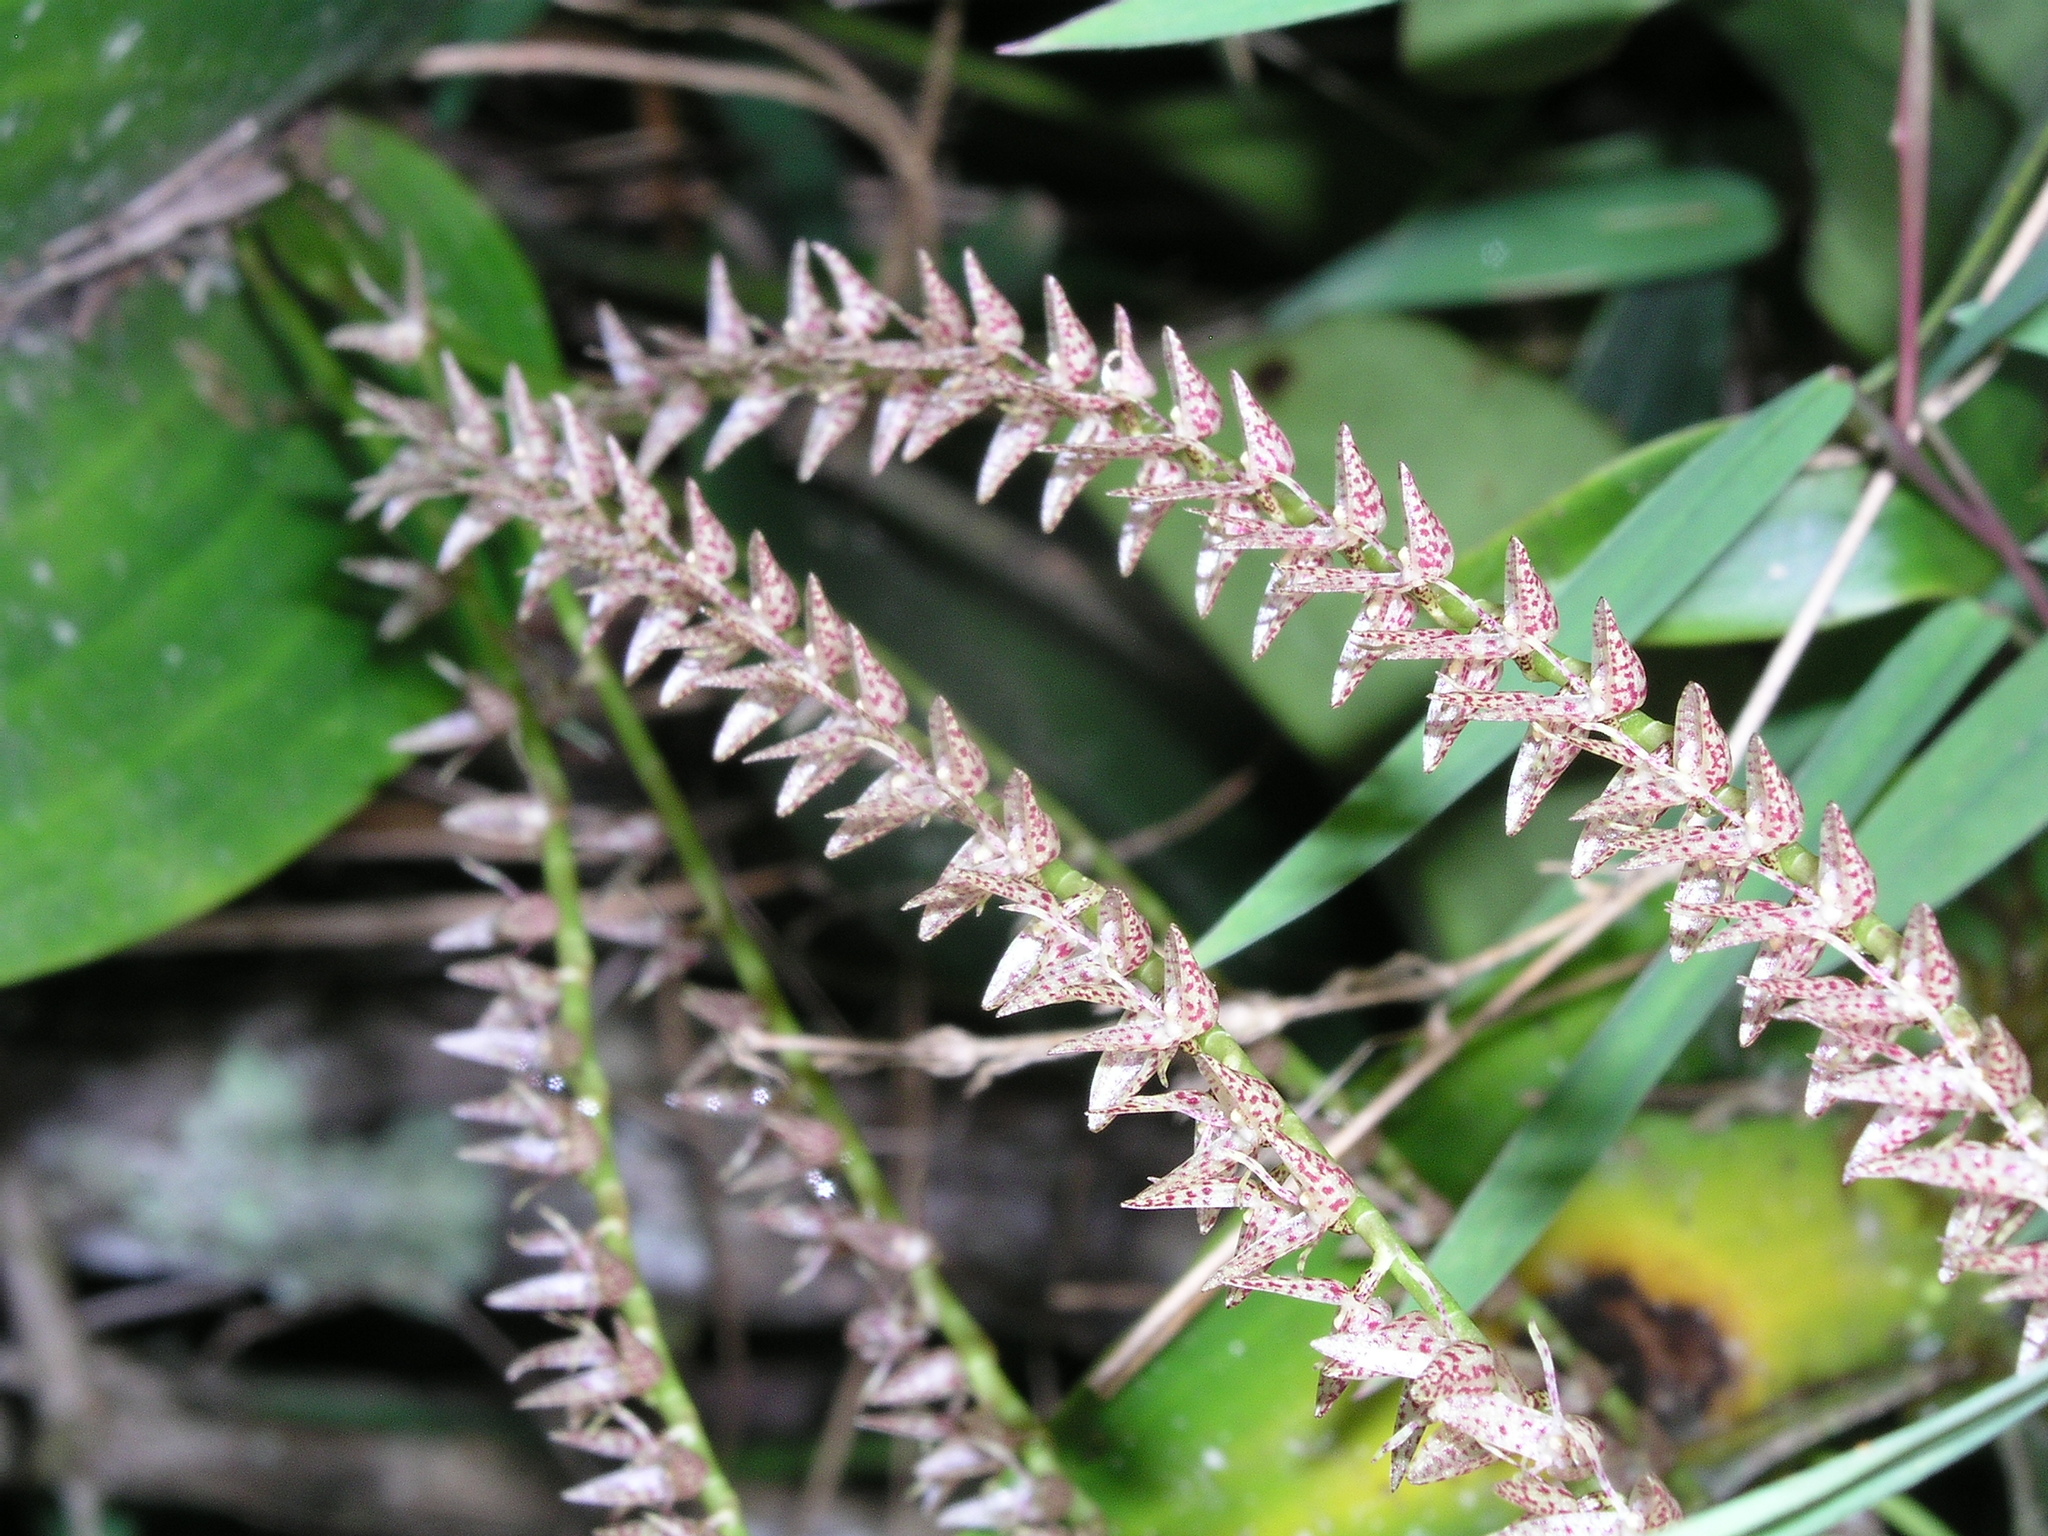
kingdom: Plantae
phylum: Tracheophyta
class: Liliopsida
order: Asparagales
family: Orchidaceae
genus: Pleurothallis
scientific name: Pleurothallis revoluta
